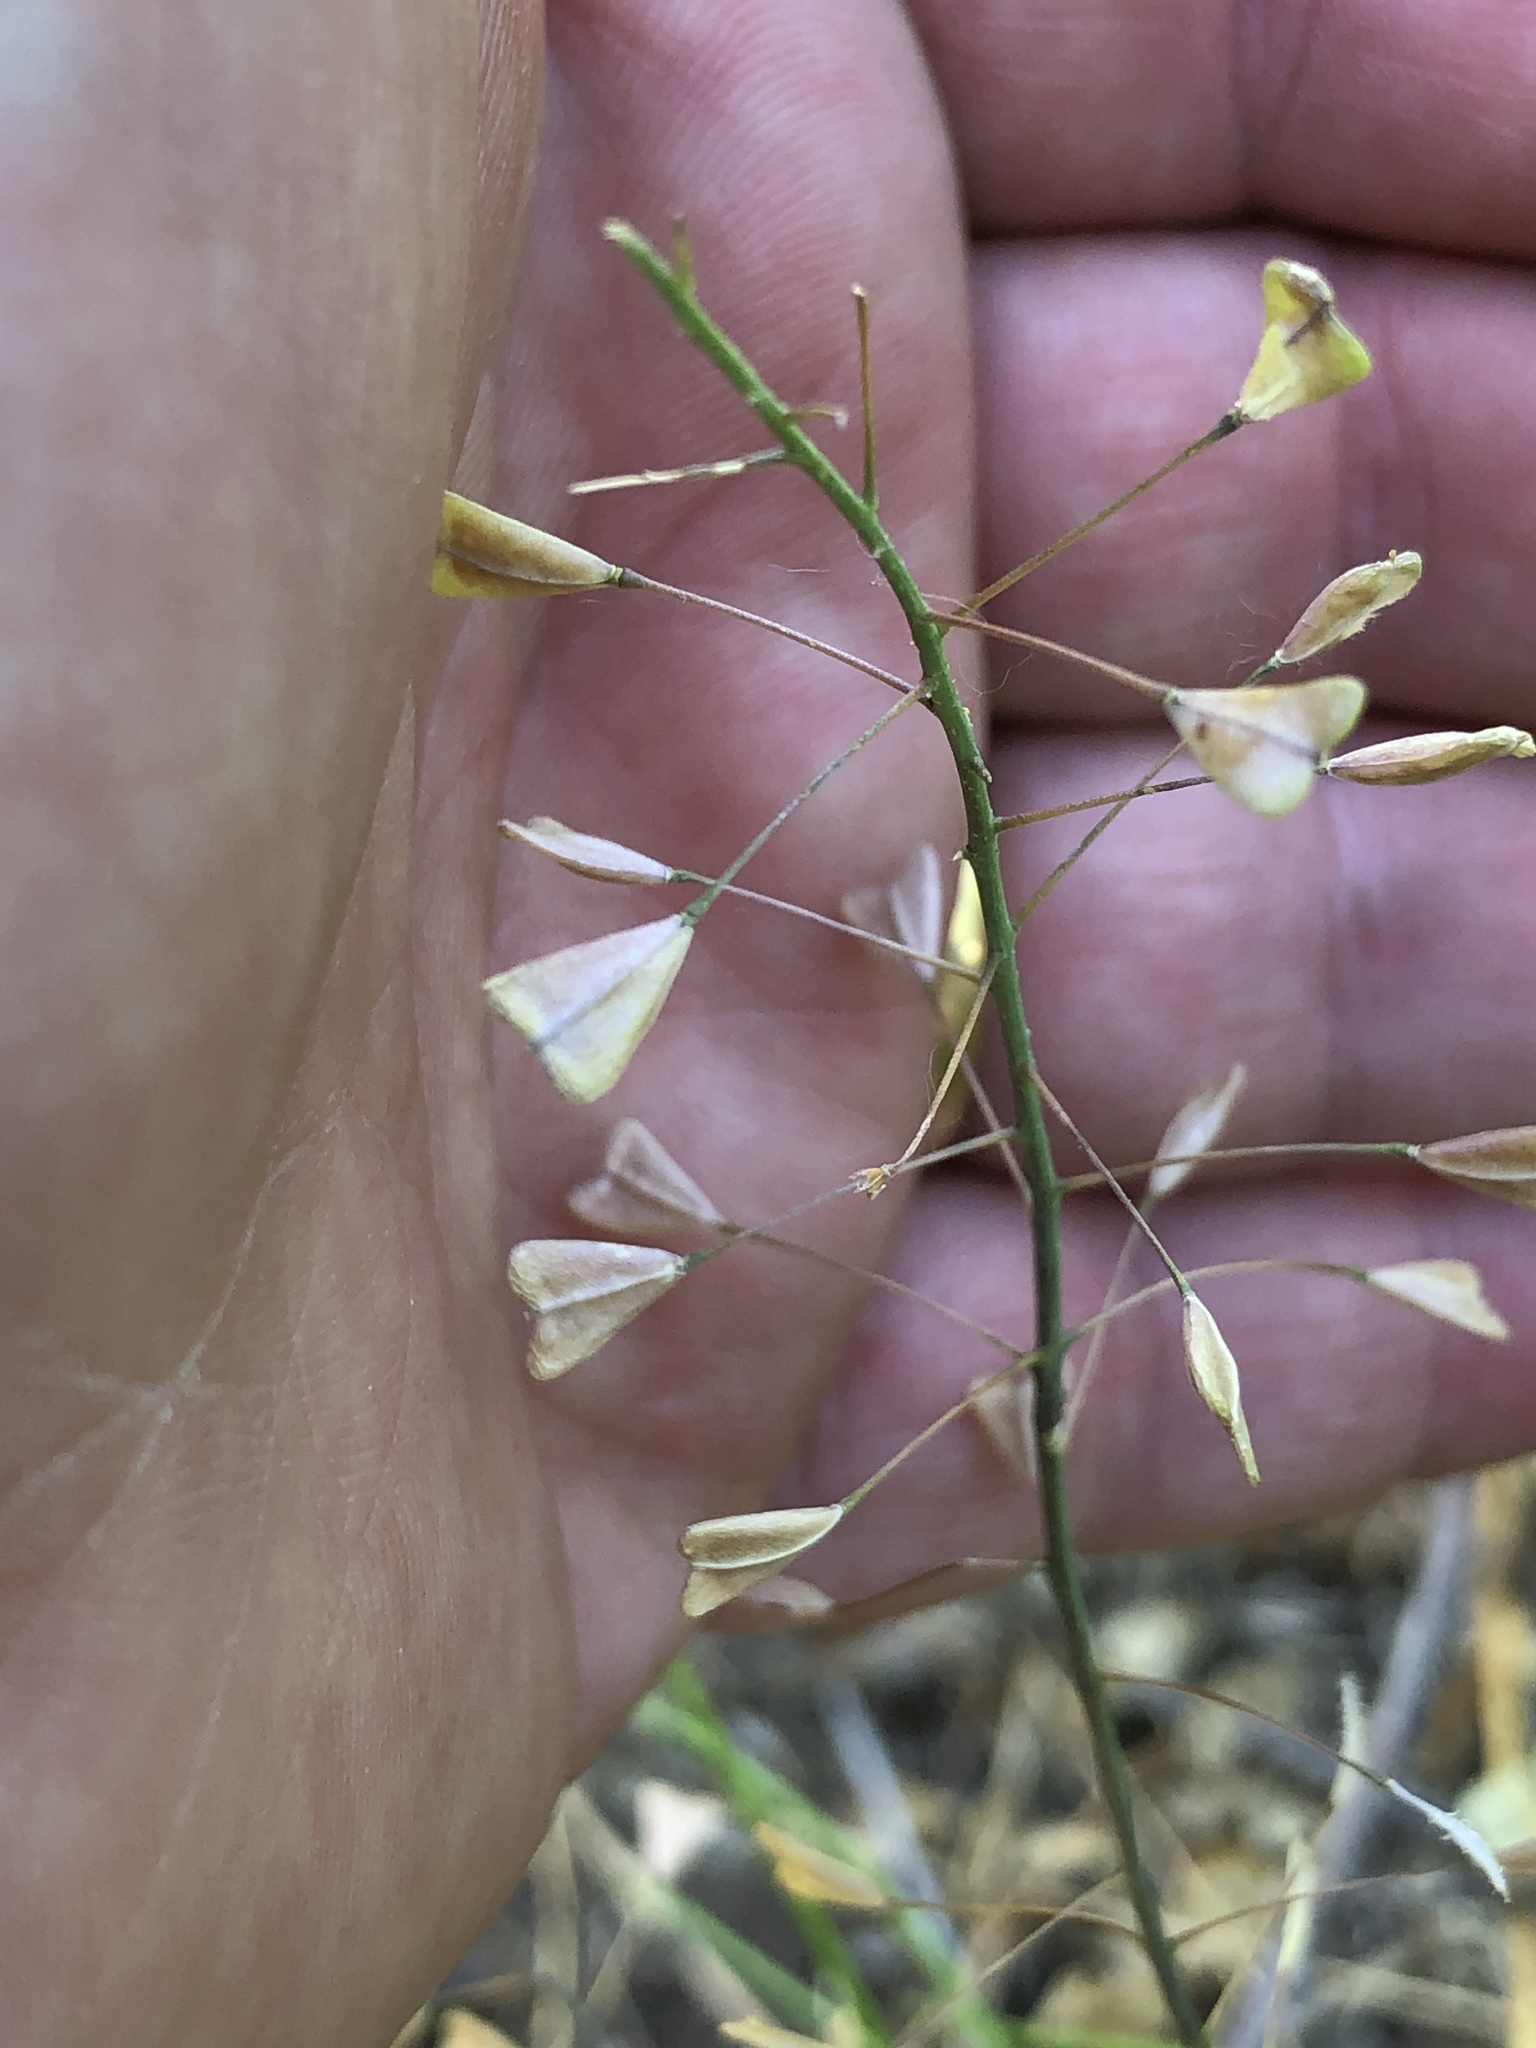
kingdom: Plantae
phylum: Tracheophyta
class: Magnoliopsida
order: Brassicales
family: Brassicaceae
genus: Capsella
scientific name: Capsella bursa-pastoris
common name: Shepherd's purse
